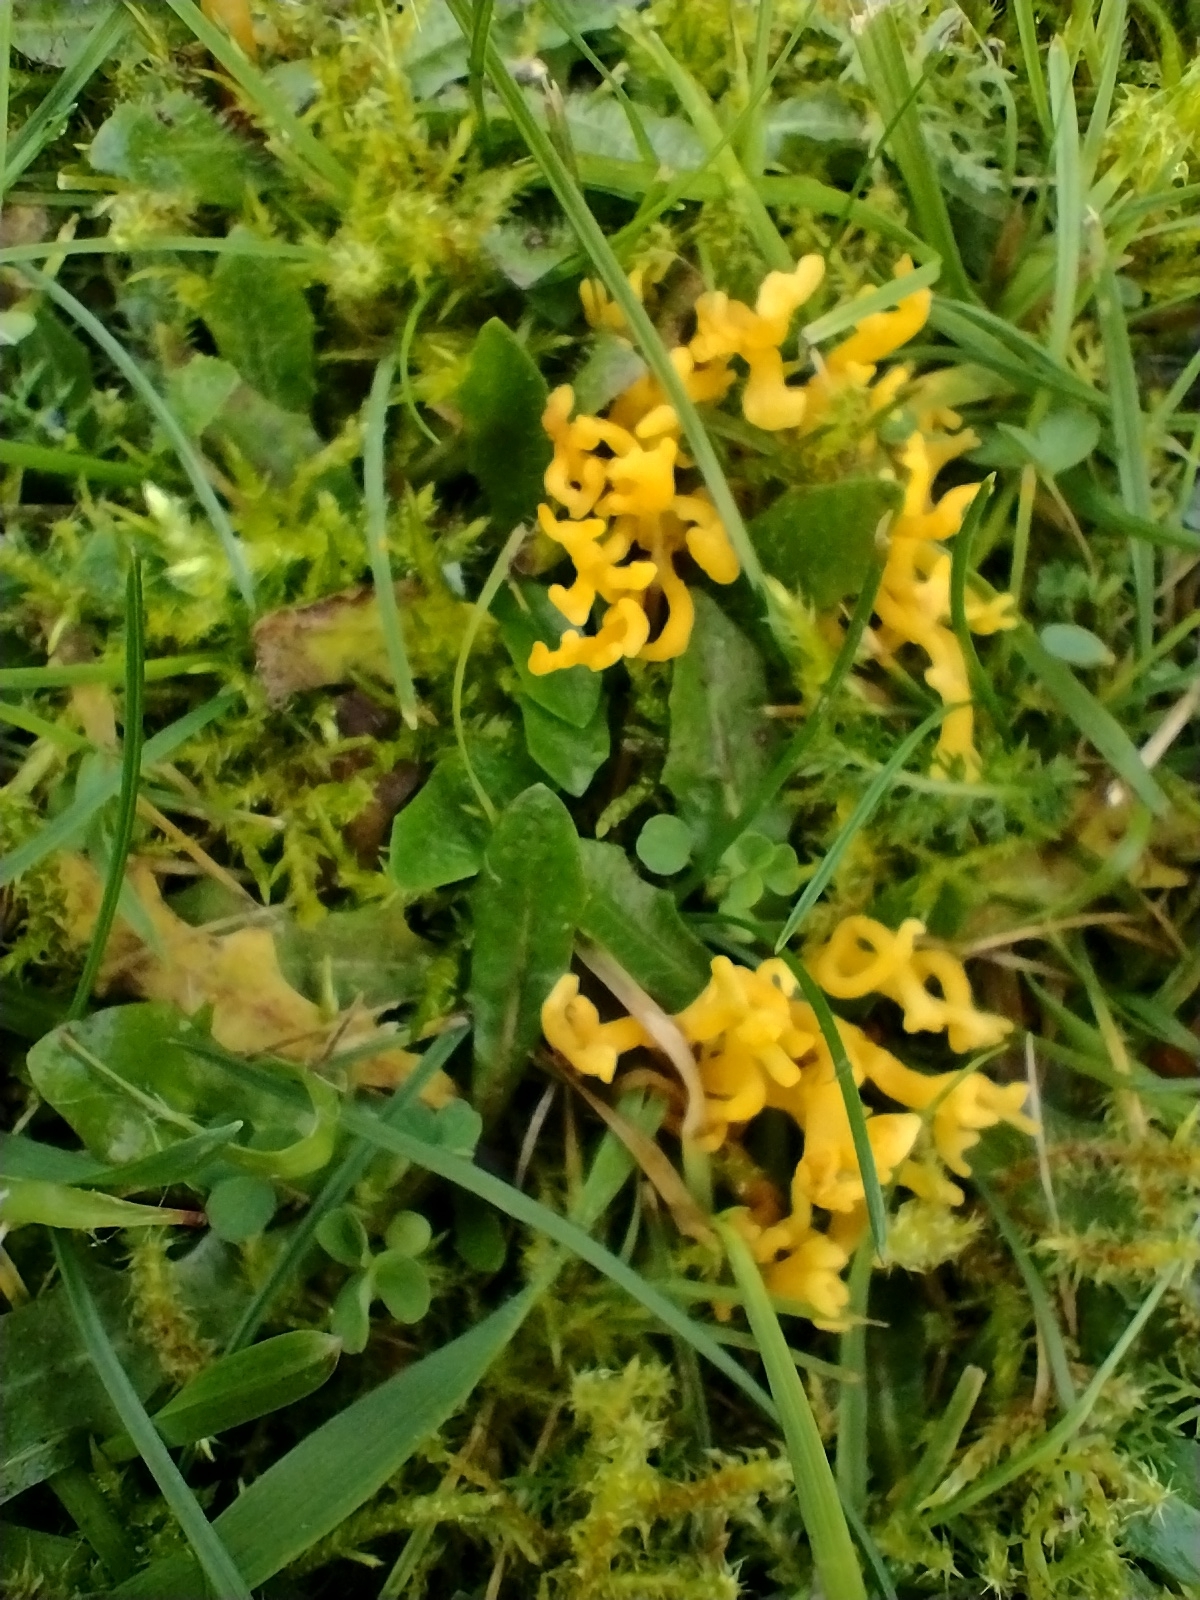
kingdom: Fungi
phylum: Basidiomycota
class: Agaricomycetes
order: Agaricales
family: Clavariaceae
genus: Clavulinopsis
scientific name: Clavulinopsis corniculata
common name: Meadow coral
